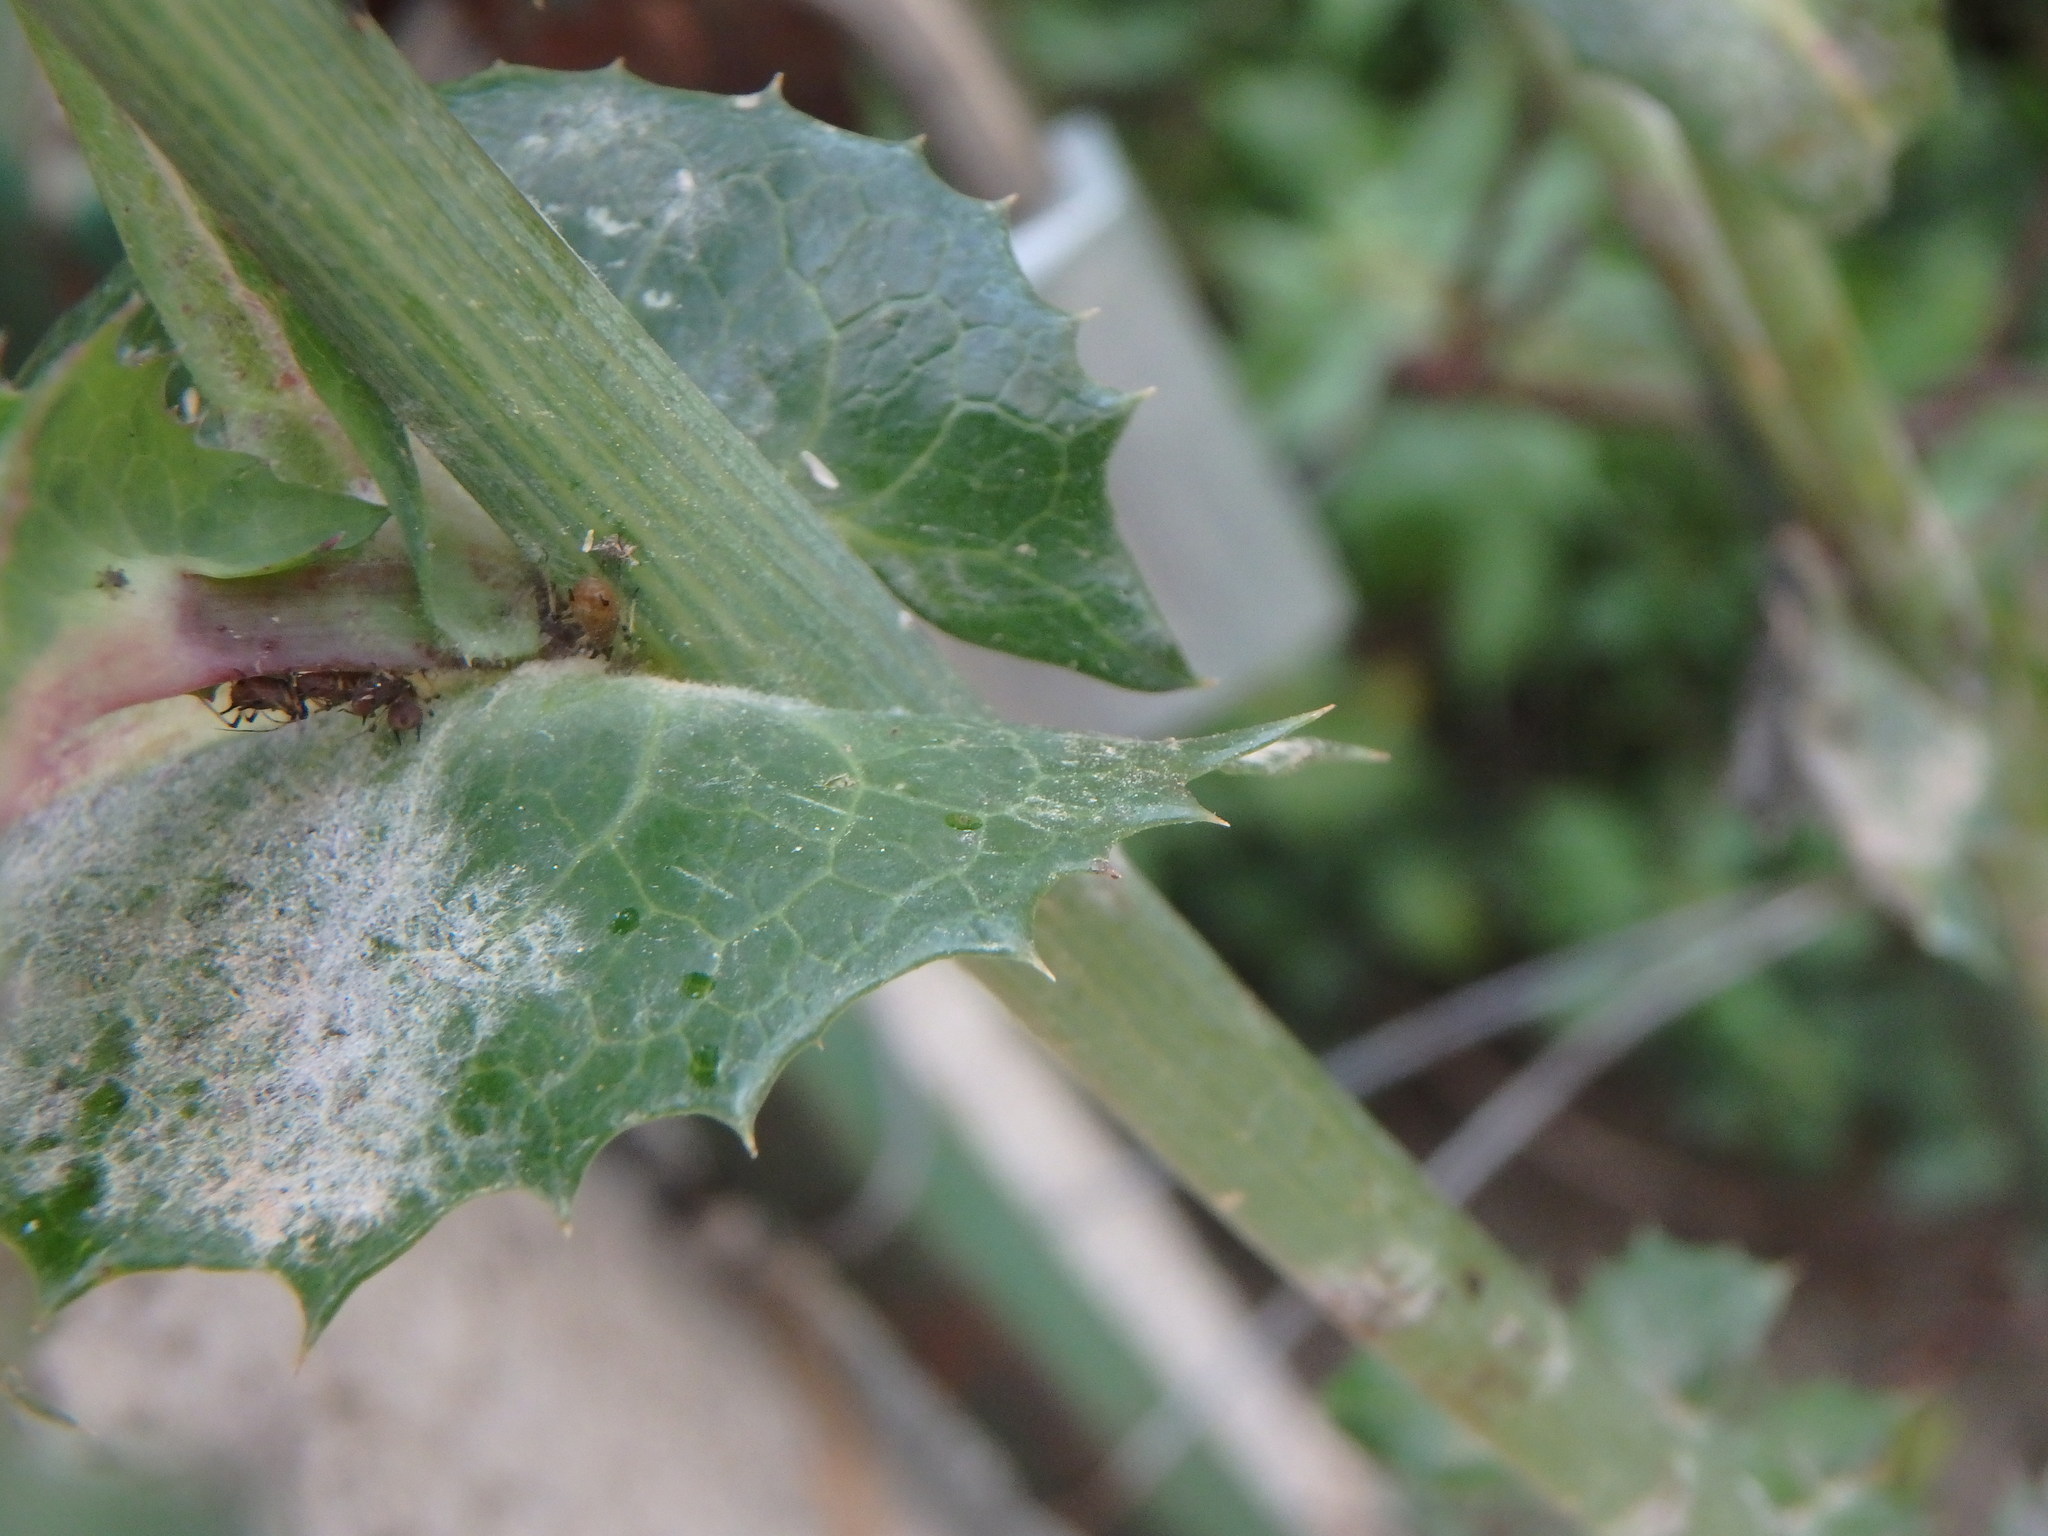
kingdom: Plantae
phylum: Tracheophyta
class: Magnoliopsida
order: Asterales
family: Asteraceae
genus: Sonchus
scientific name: Sonchus oleraceus
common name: Common sowthistle
